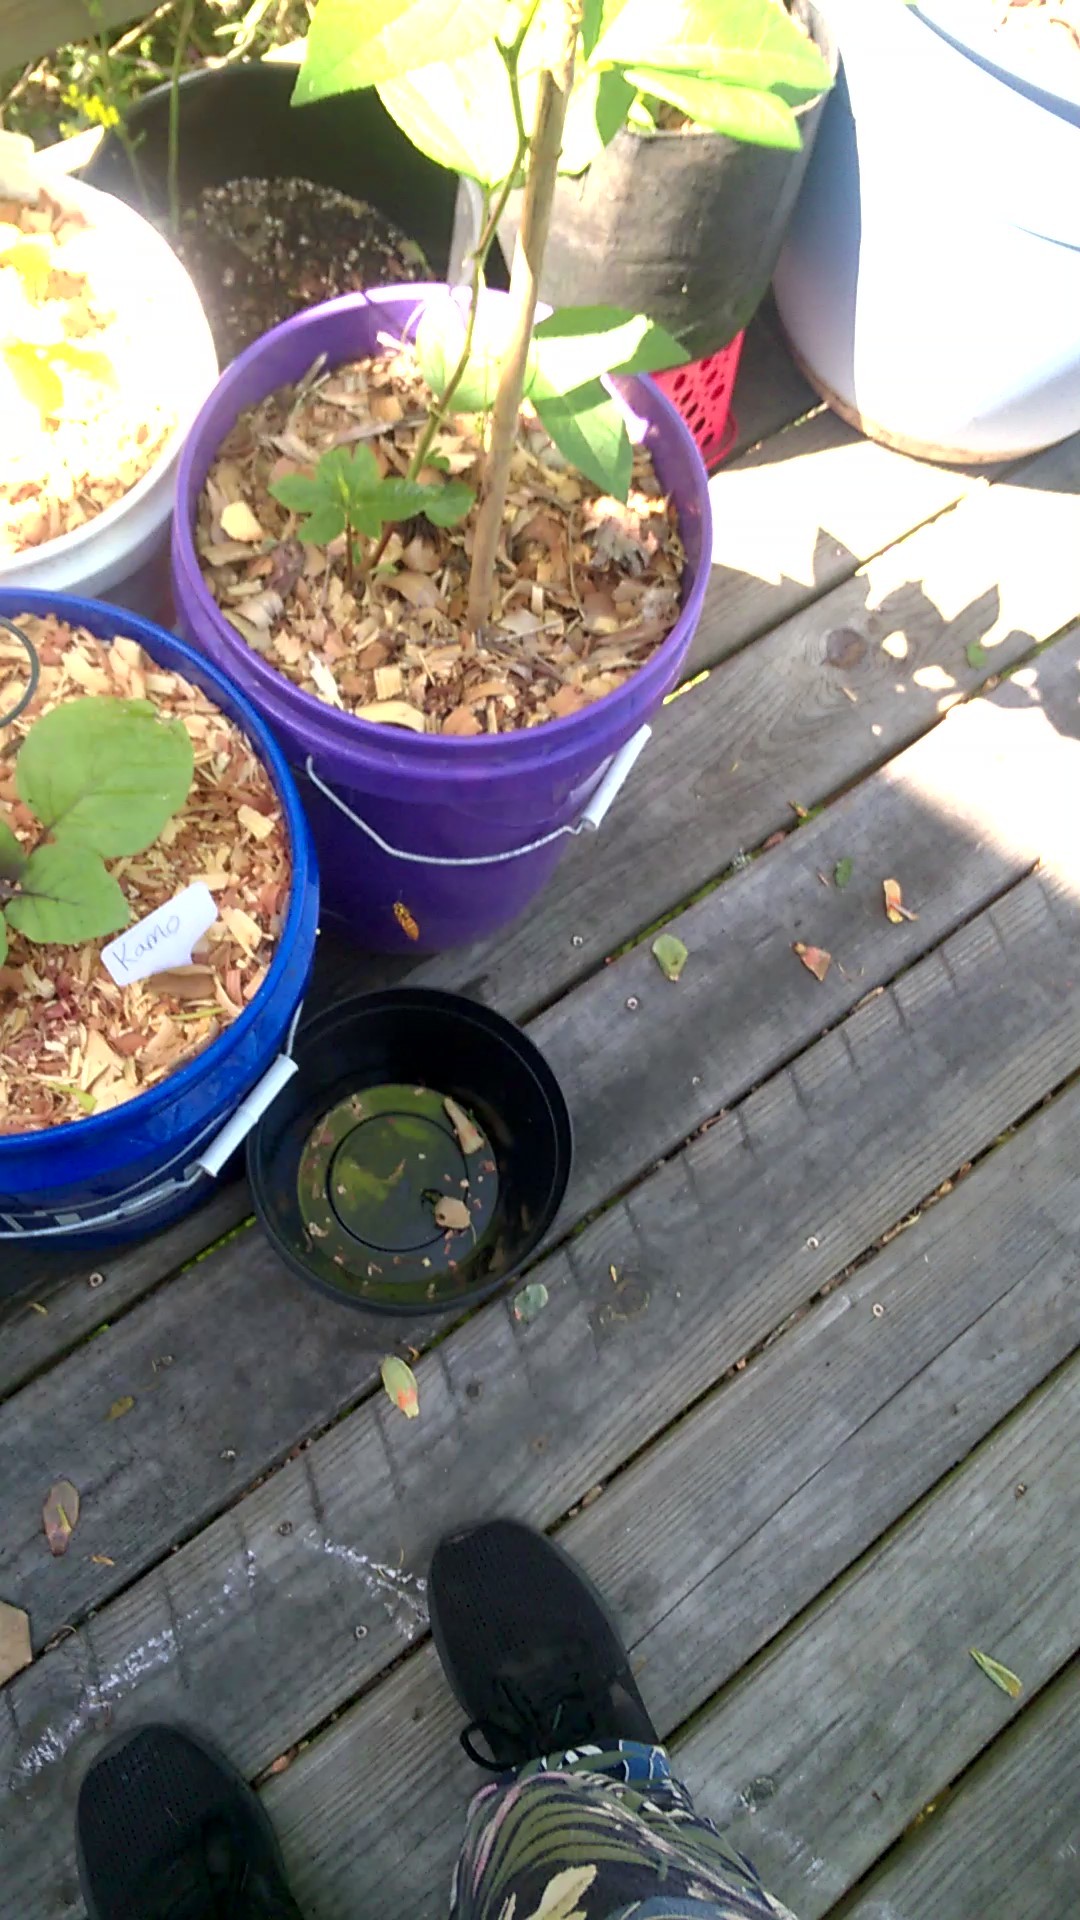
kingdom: Animalia
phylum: Arthropoda
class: Insecta
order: Hymenoptera
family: Vespidae
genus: Vespula
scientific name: Vespula squamosa
